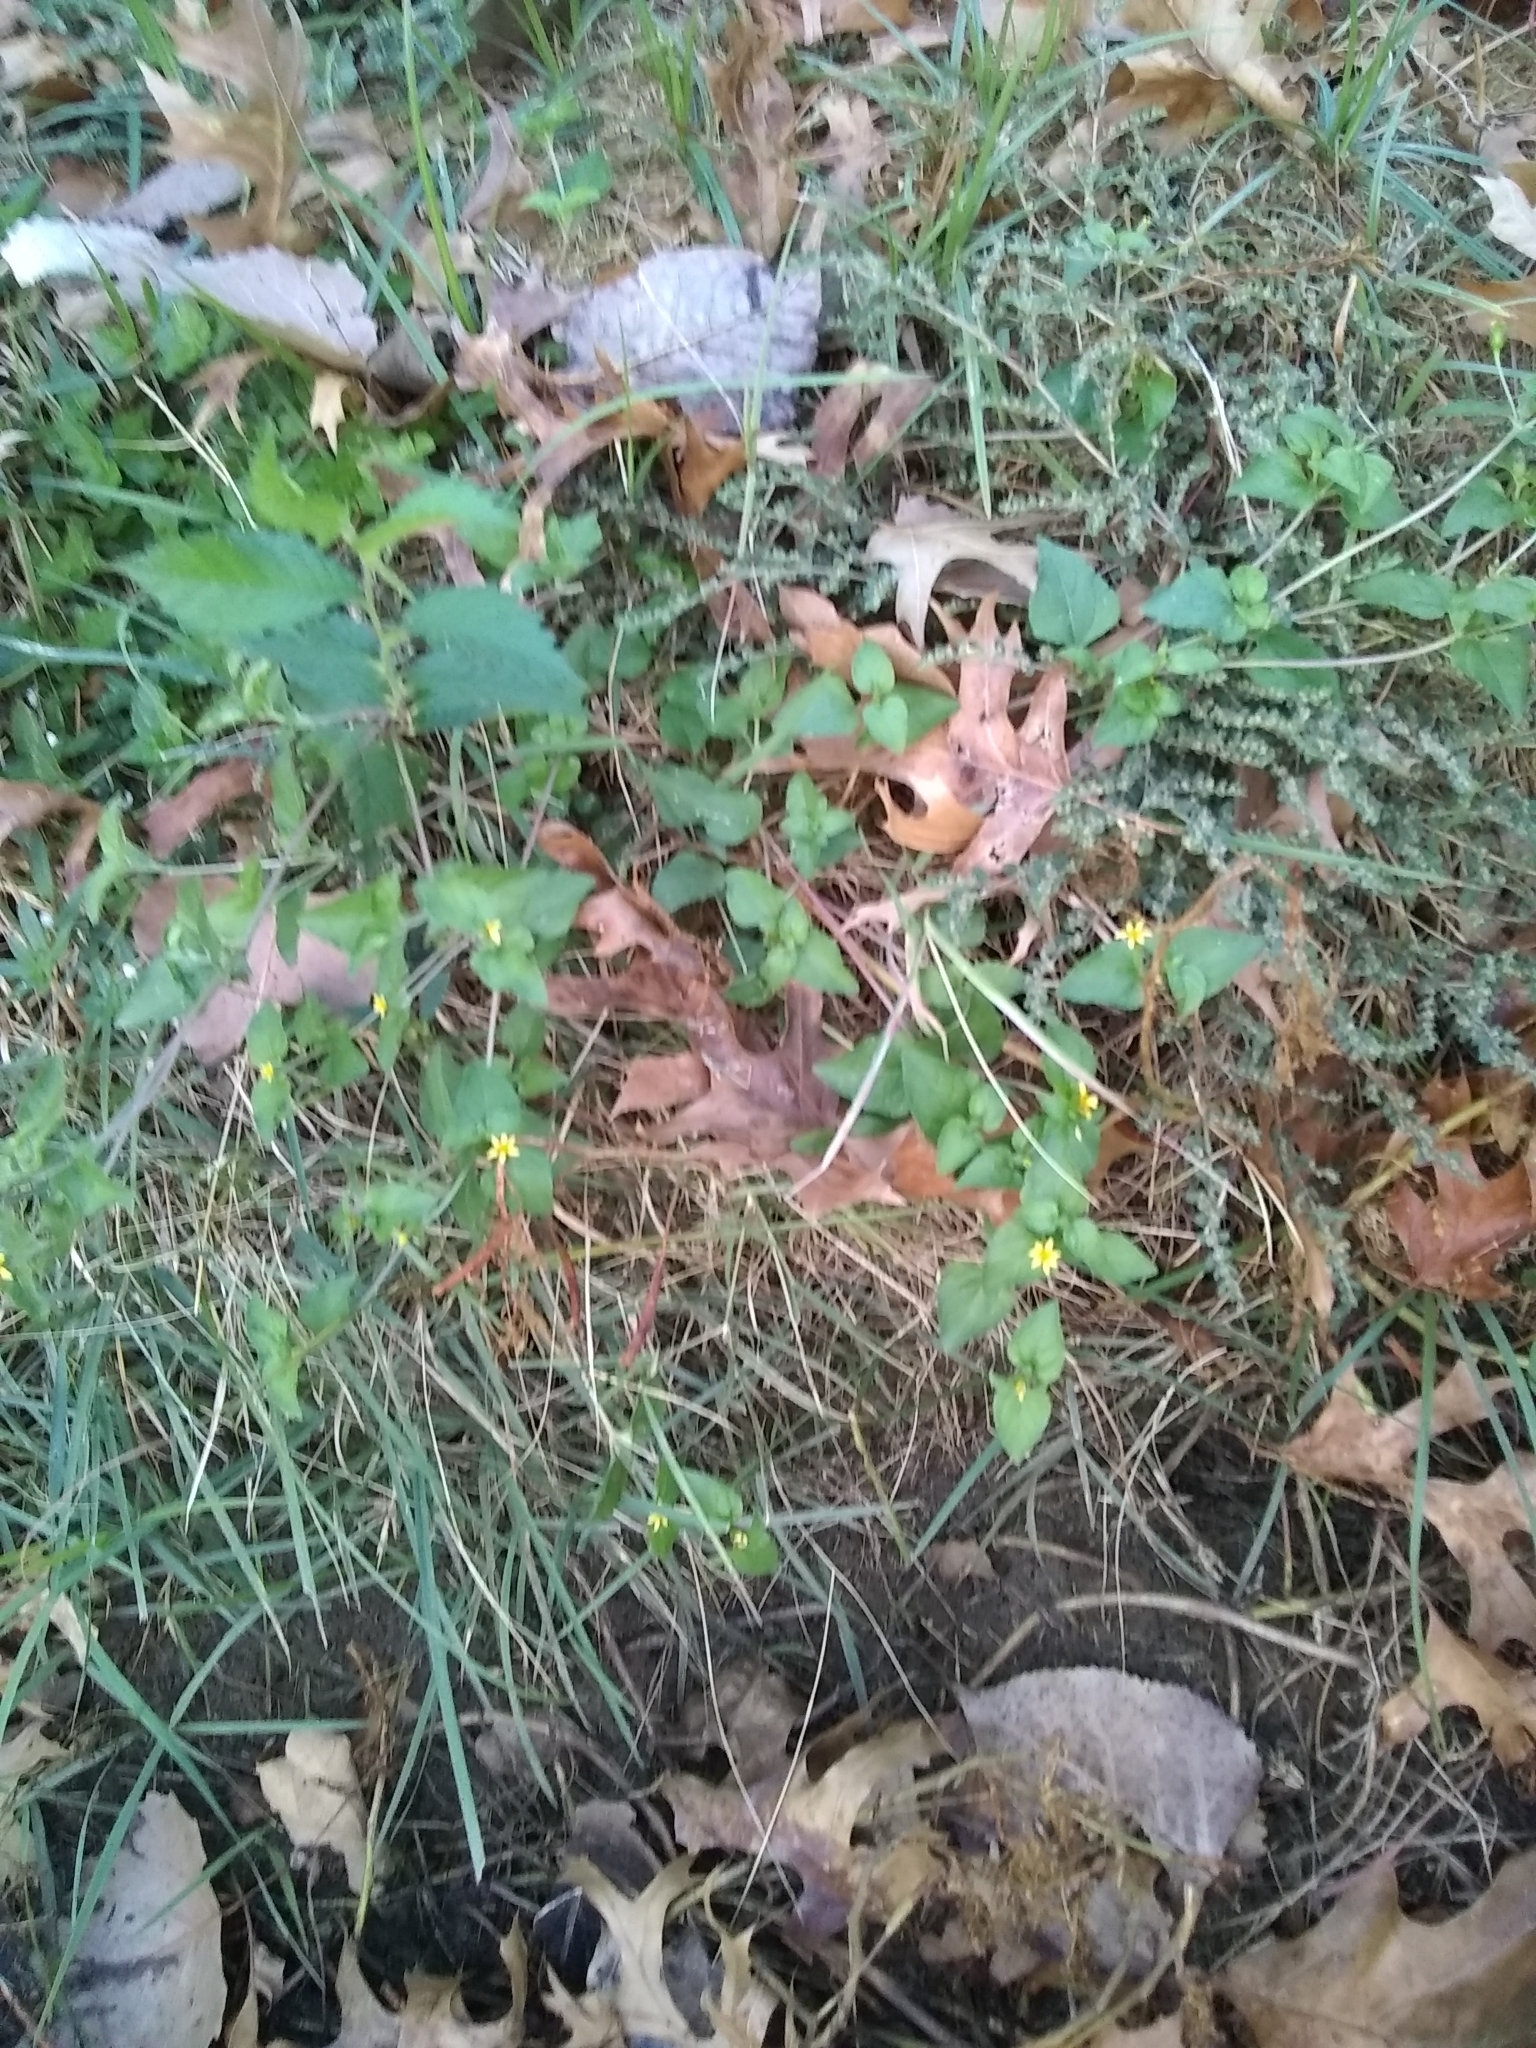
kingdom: Plantae
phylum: Tracheophyta
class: Magnoliopsida
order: Asterales
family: Asteraceae
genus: Calyptocarpus
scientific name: Calyptocarpus vialis
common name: Straggler daisy
